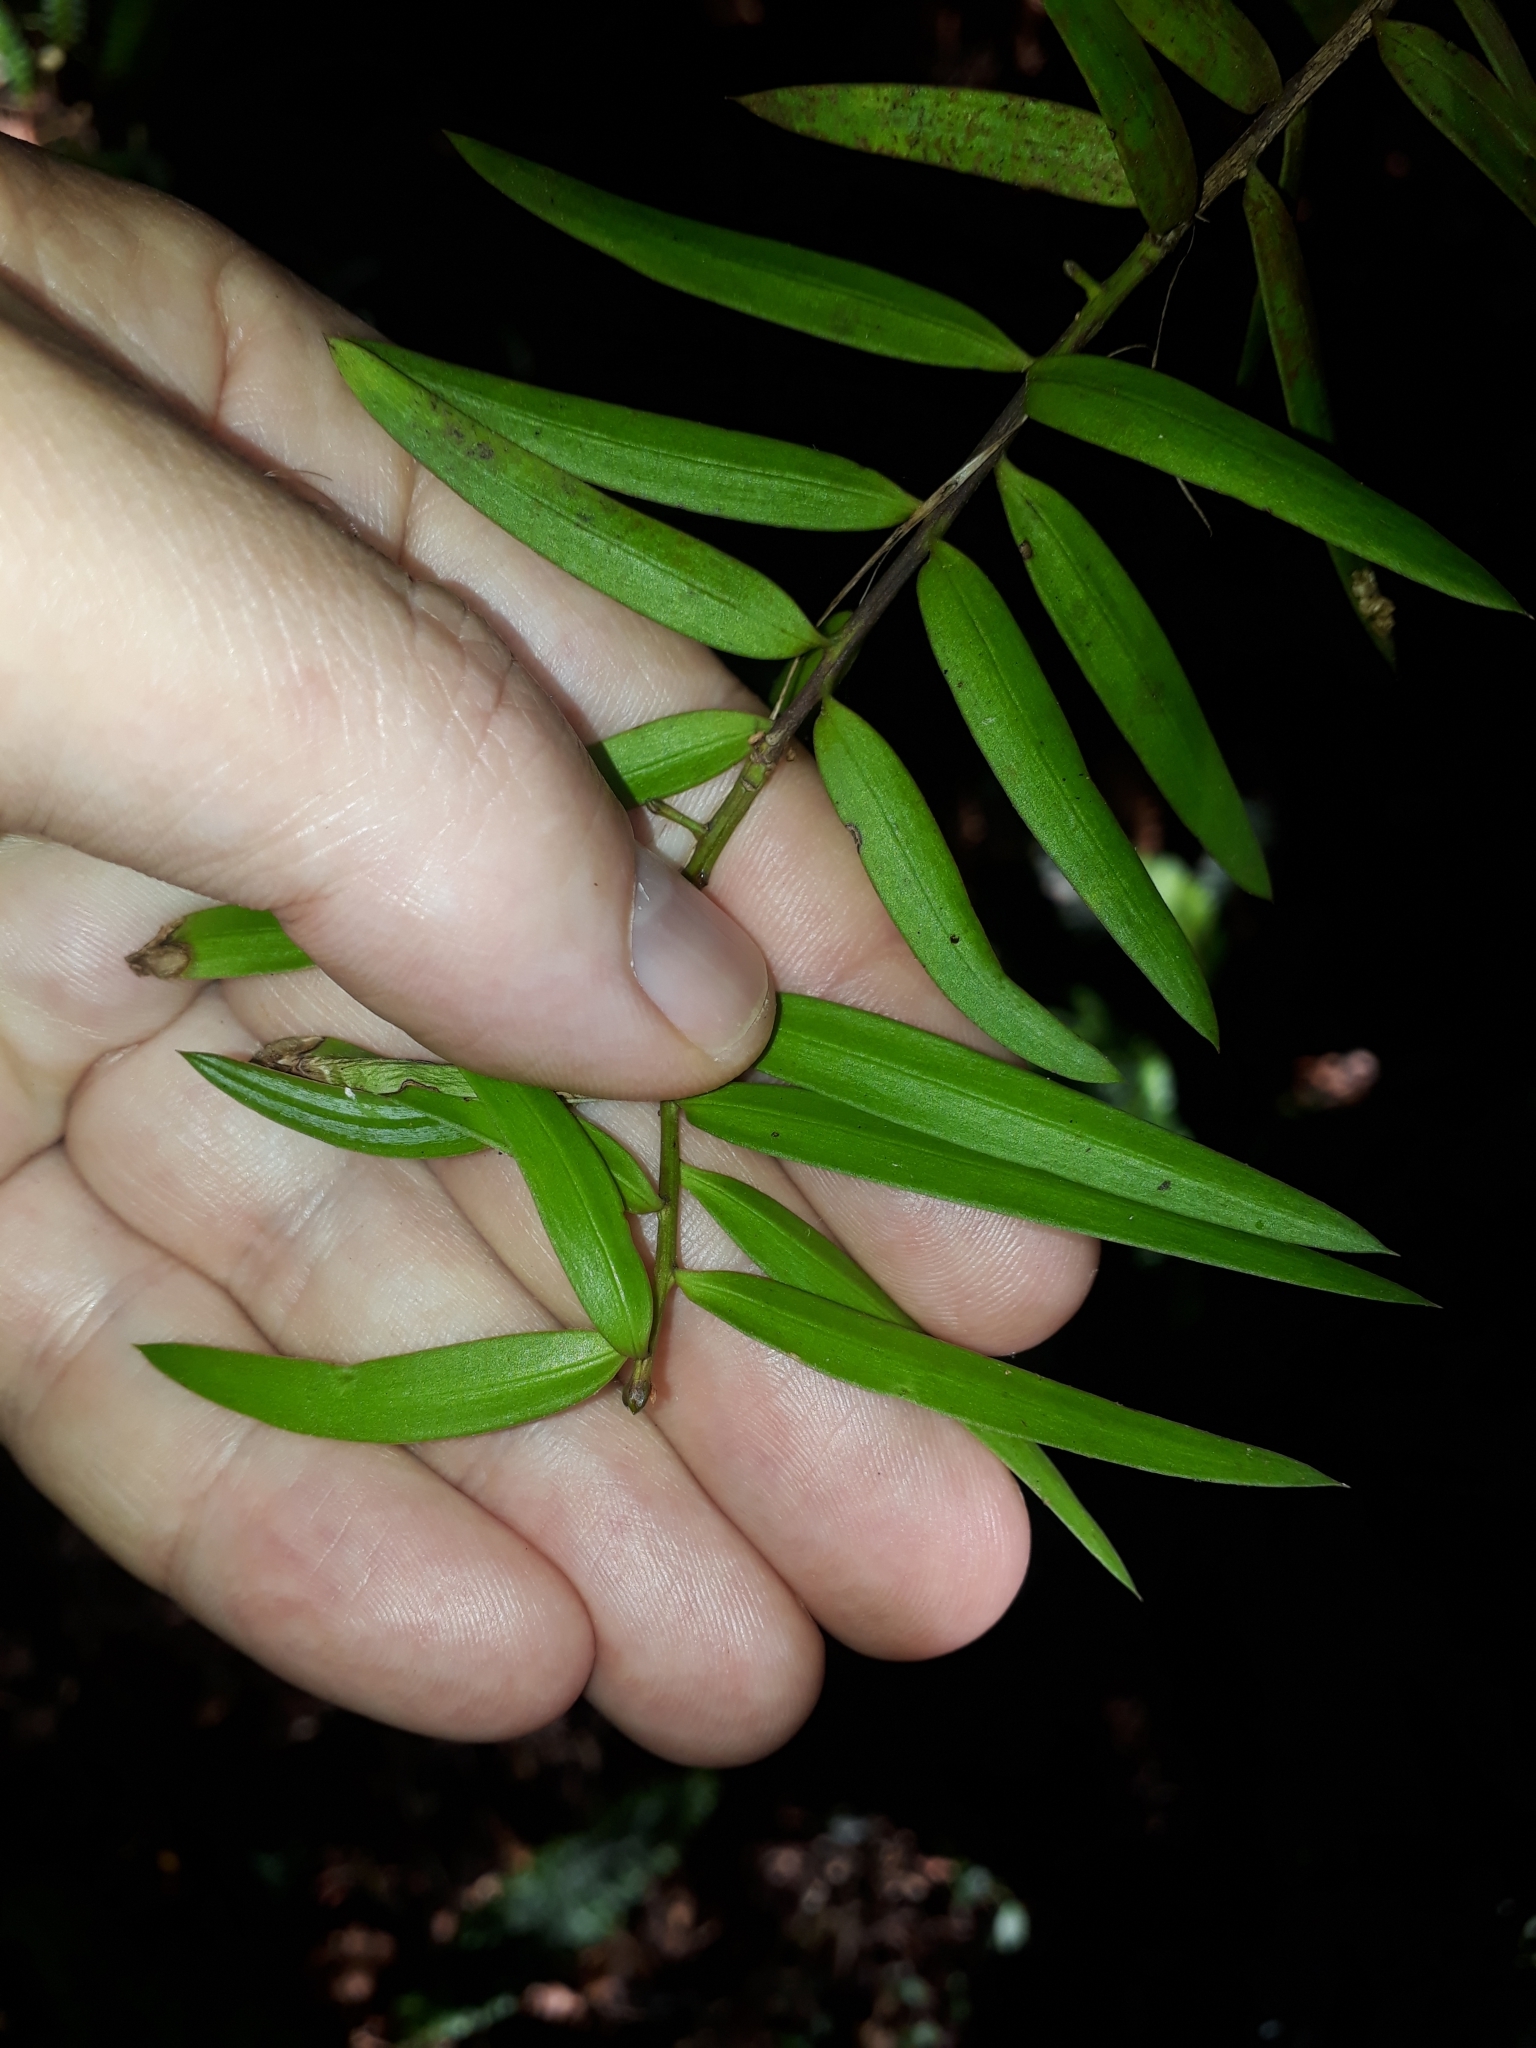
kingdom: Plantae
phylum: Tracheophyta
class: Pinopsida
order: Pinales
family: Podocarpaceae
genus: Podocarpus
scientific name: Podocarpus laetus
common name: Hall's totara
